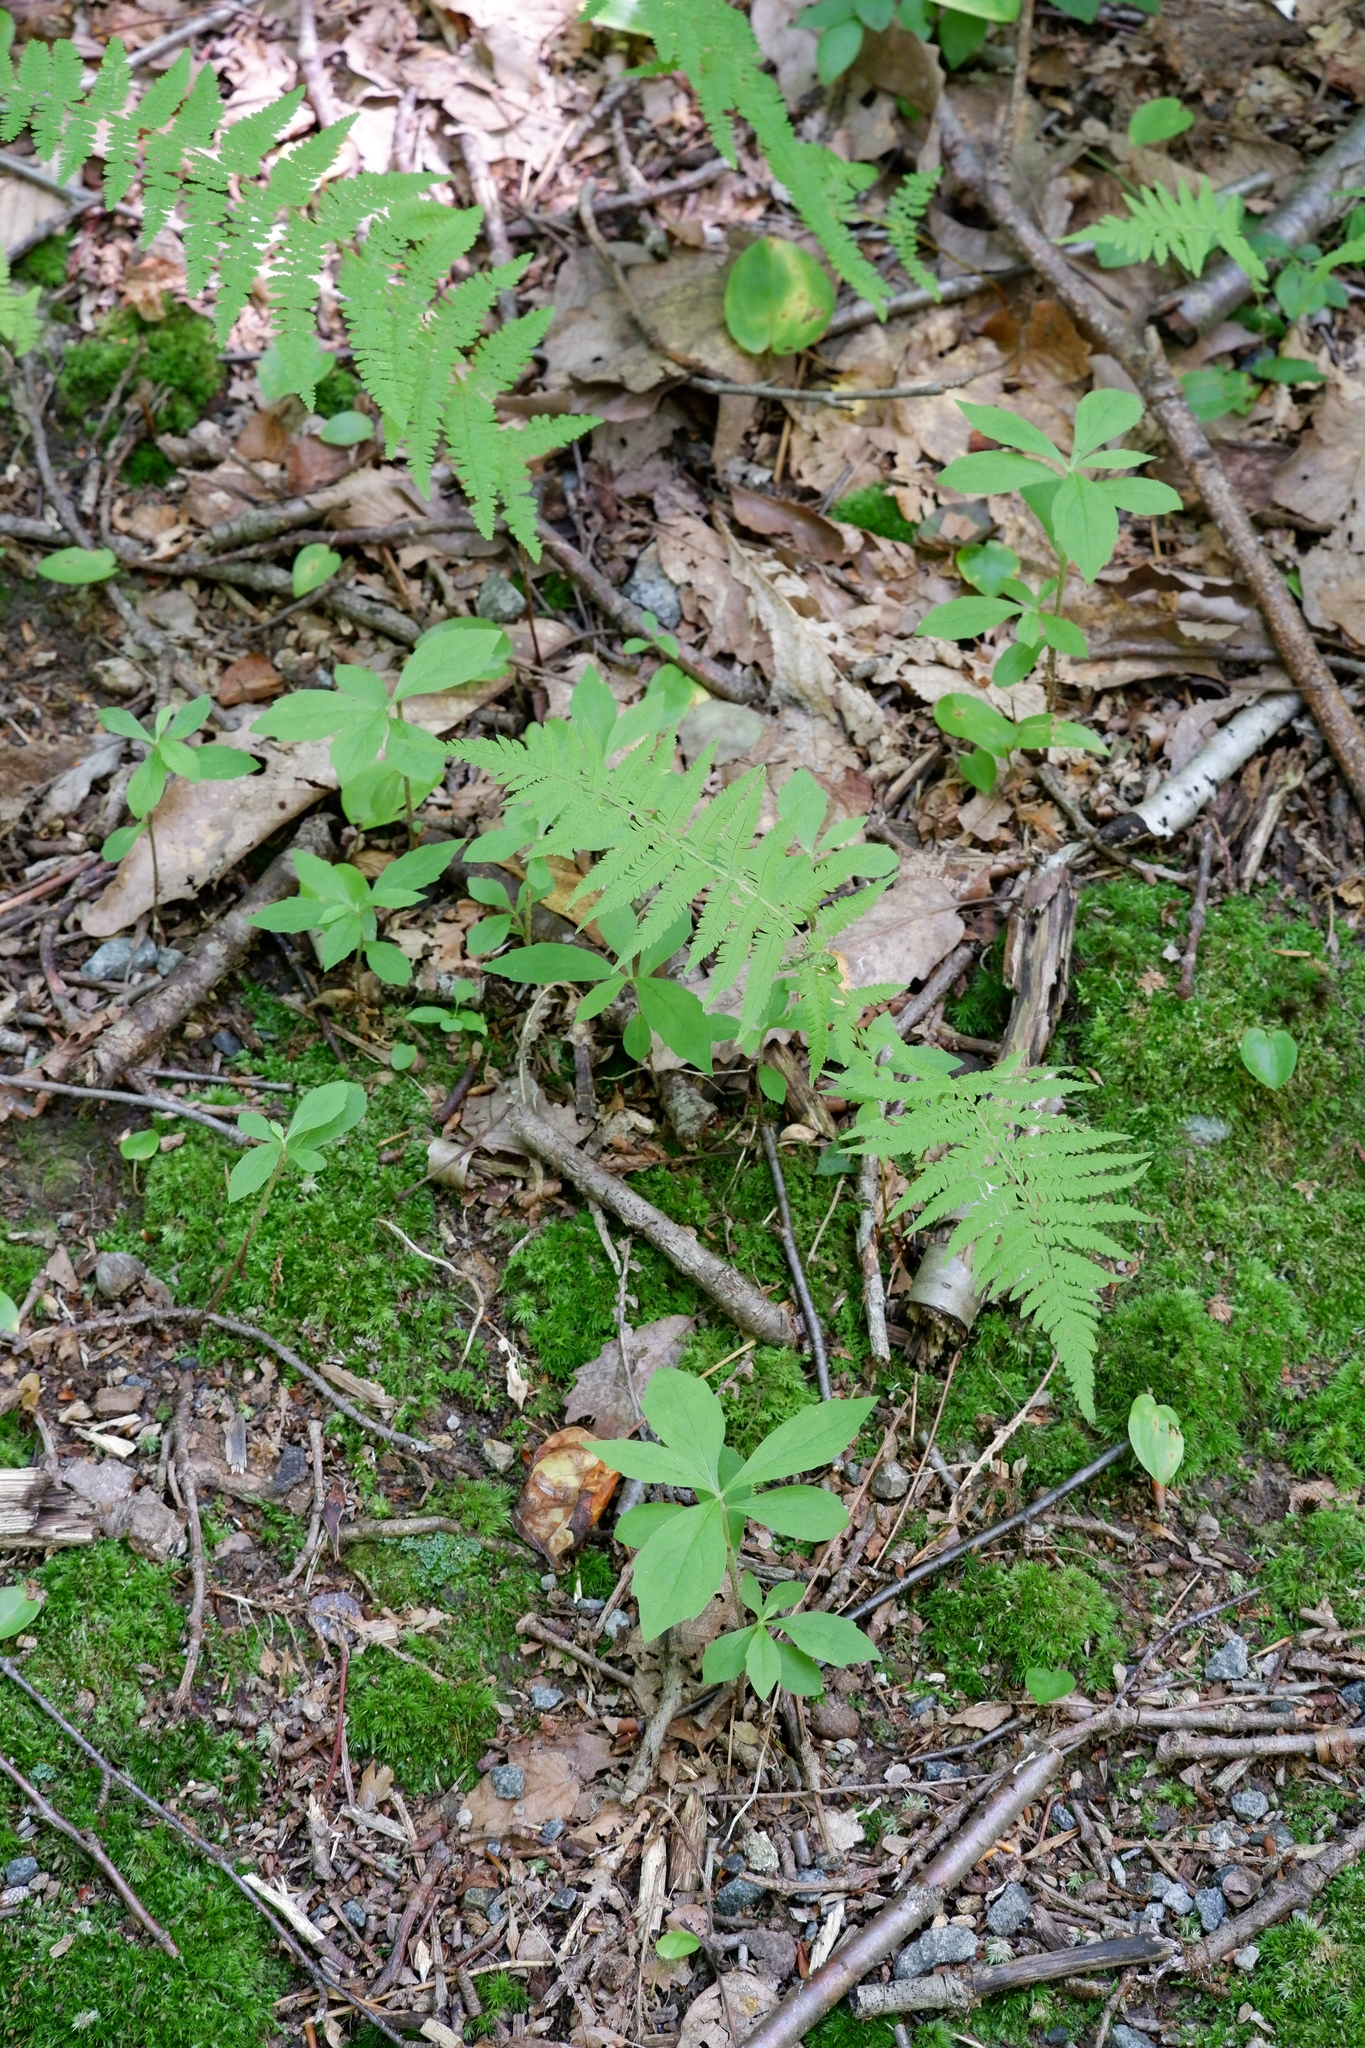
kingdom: Plantae
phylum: Tracheophyta
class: Magnoliopsida
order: Asterales
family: Asteraceae
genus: Oclemena
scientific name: Oclemena acuminata
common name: Mountain aster
